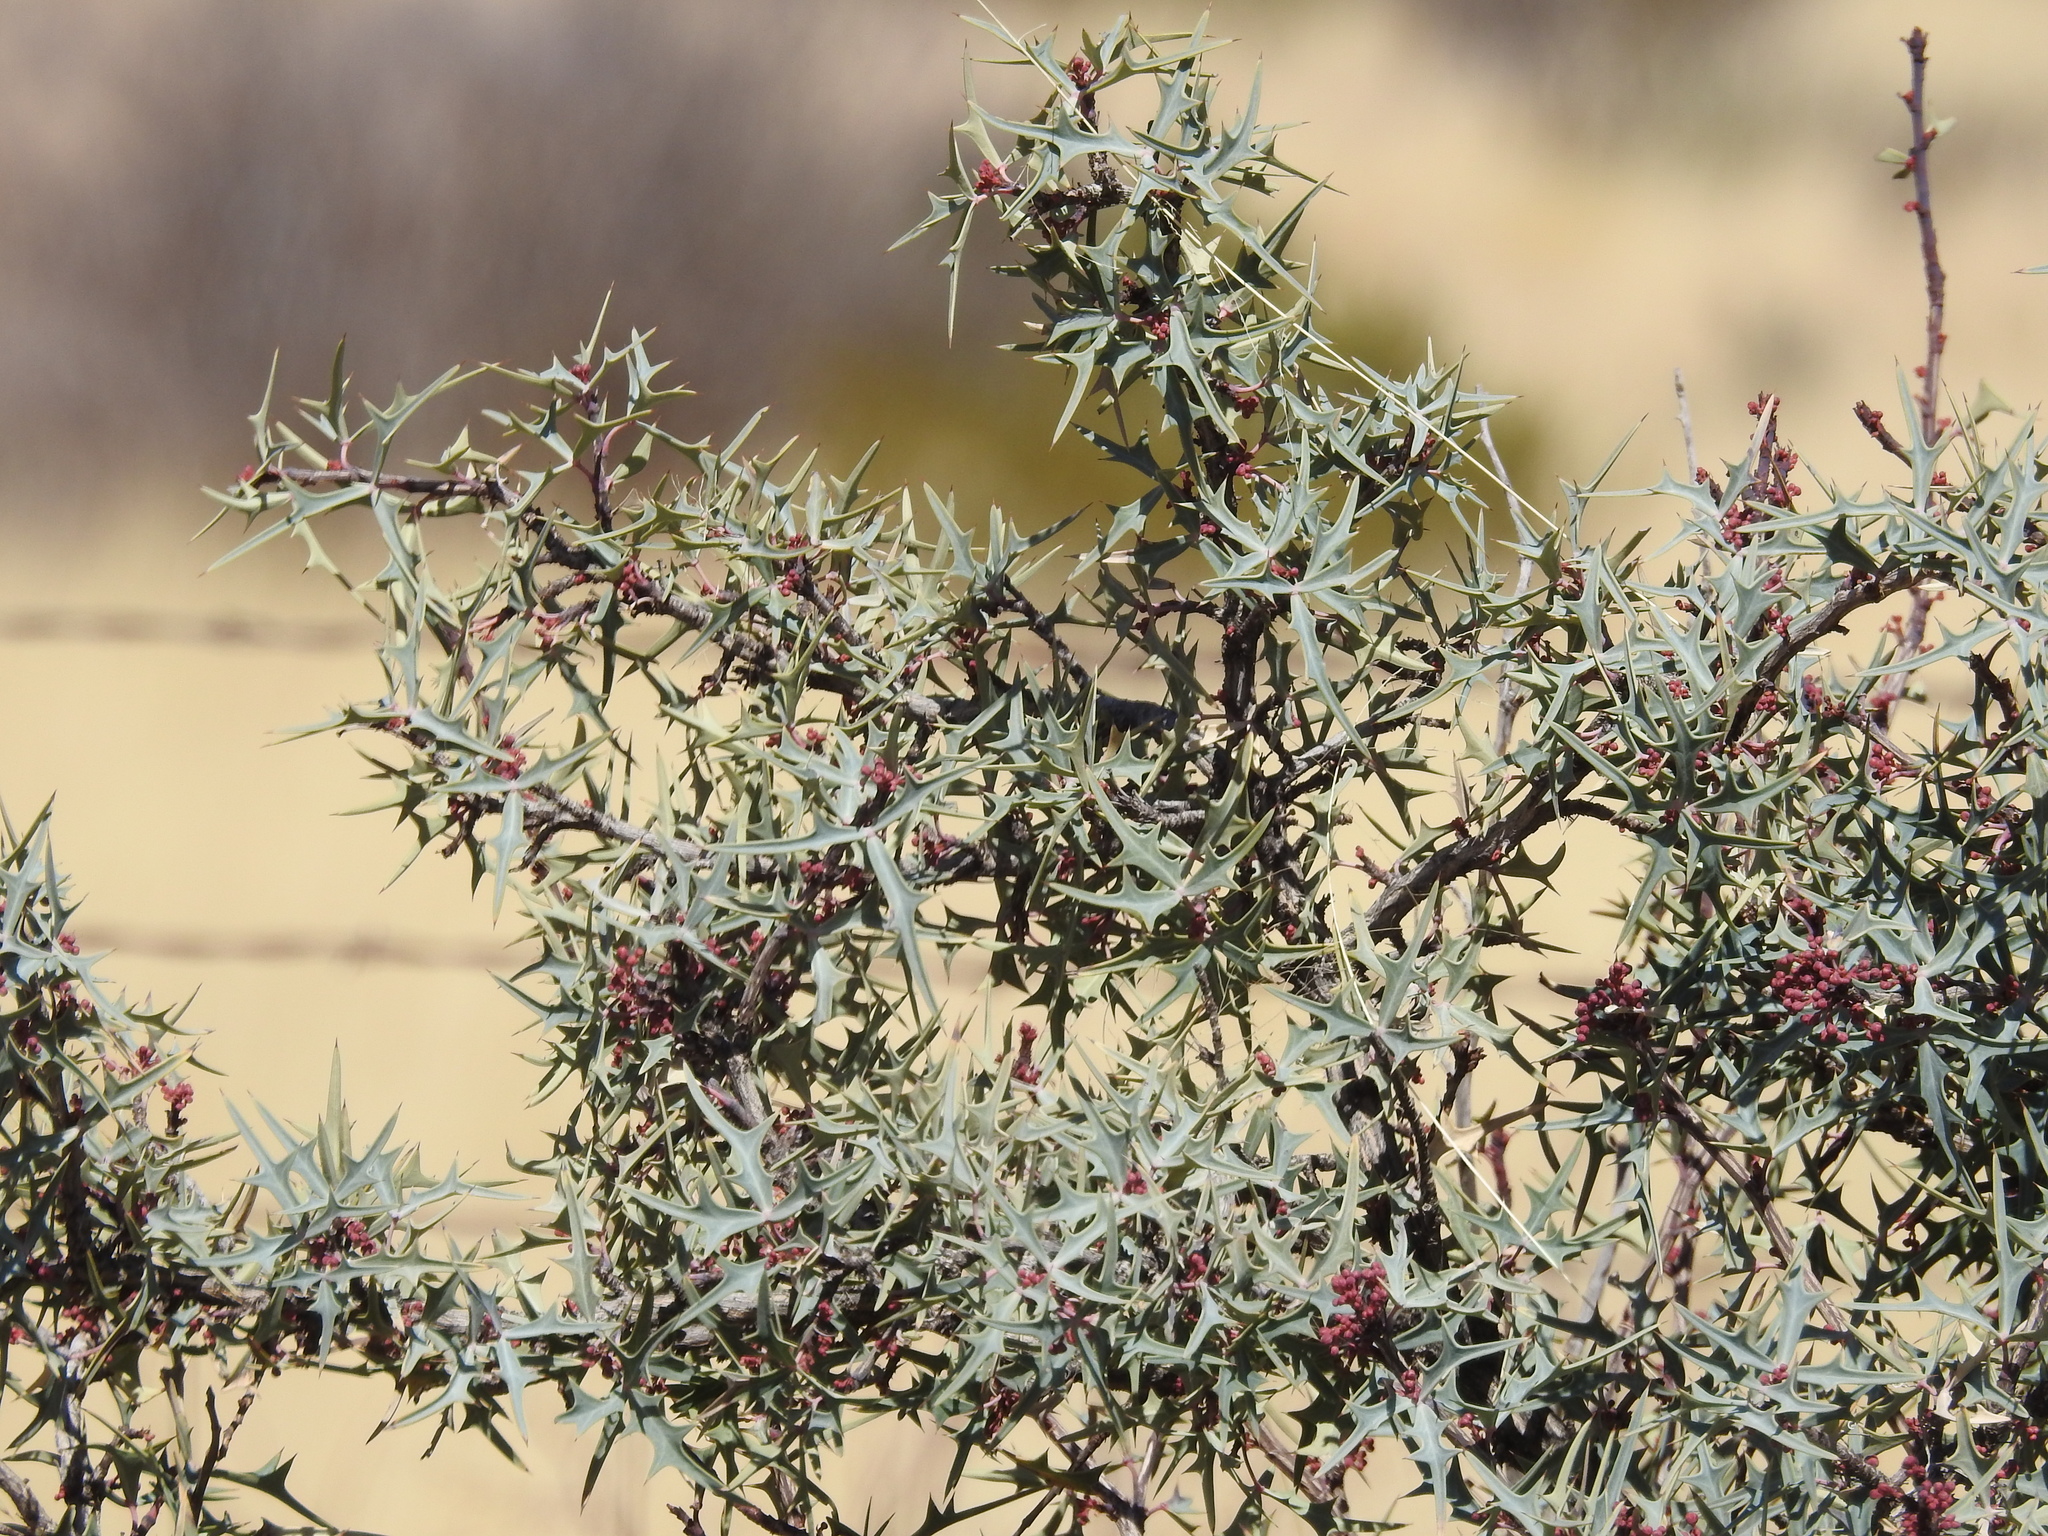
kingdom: Plantae
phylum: Tracheophyta
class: Magnoliopsida
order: Ranunculales
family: Berberidaceae
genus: Alloberberis
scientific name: Alloberberis trifoliolata
